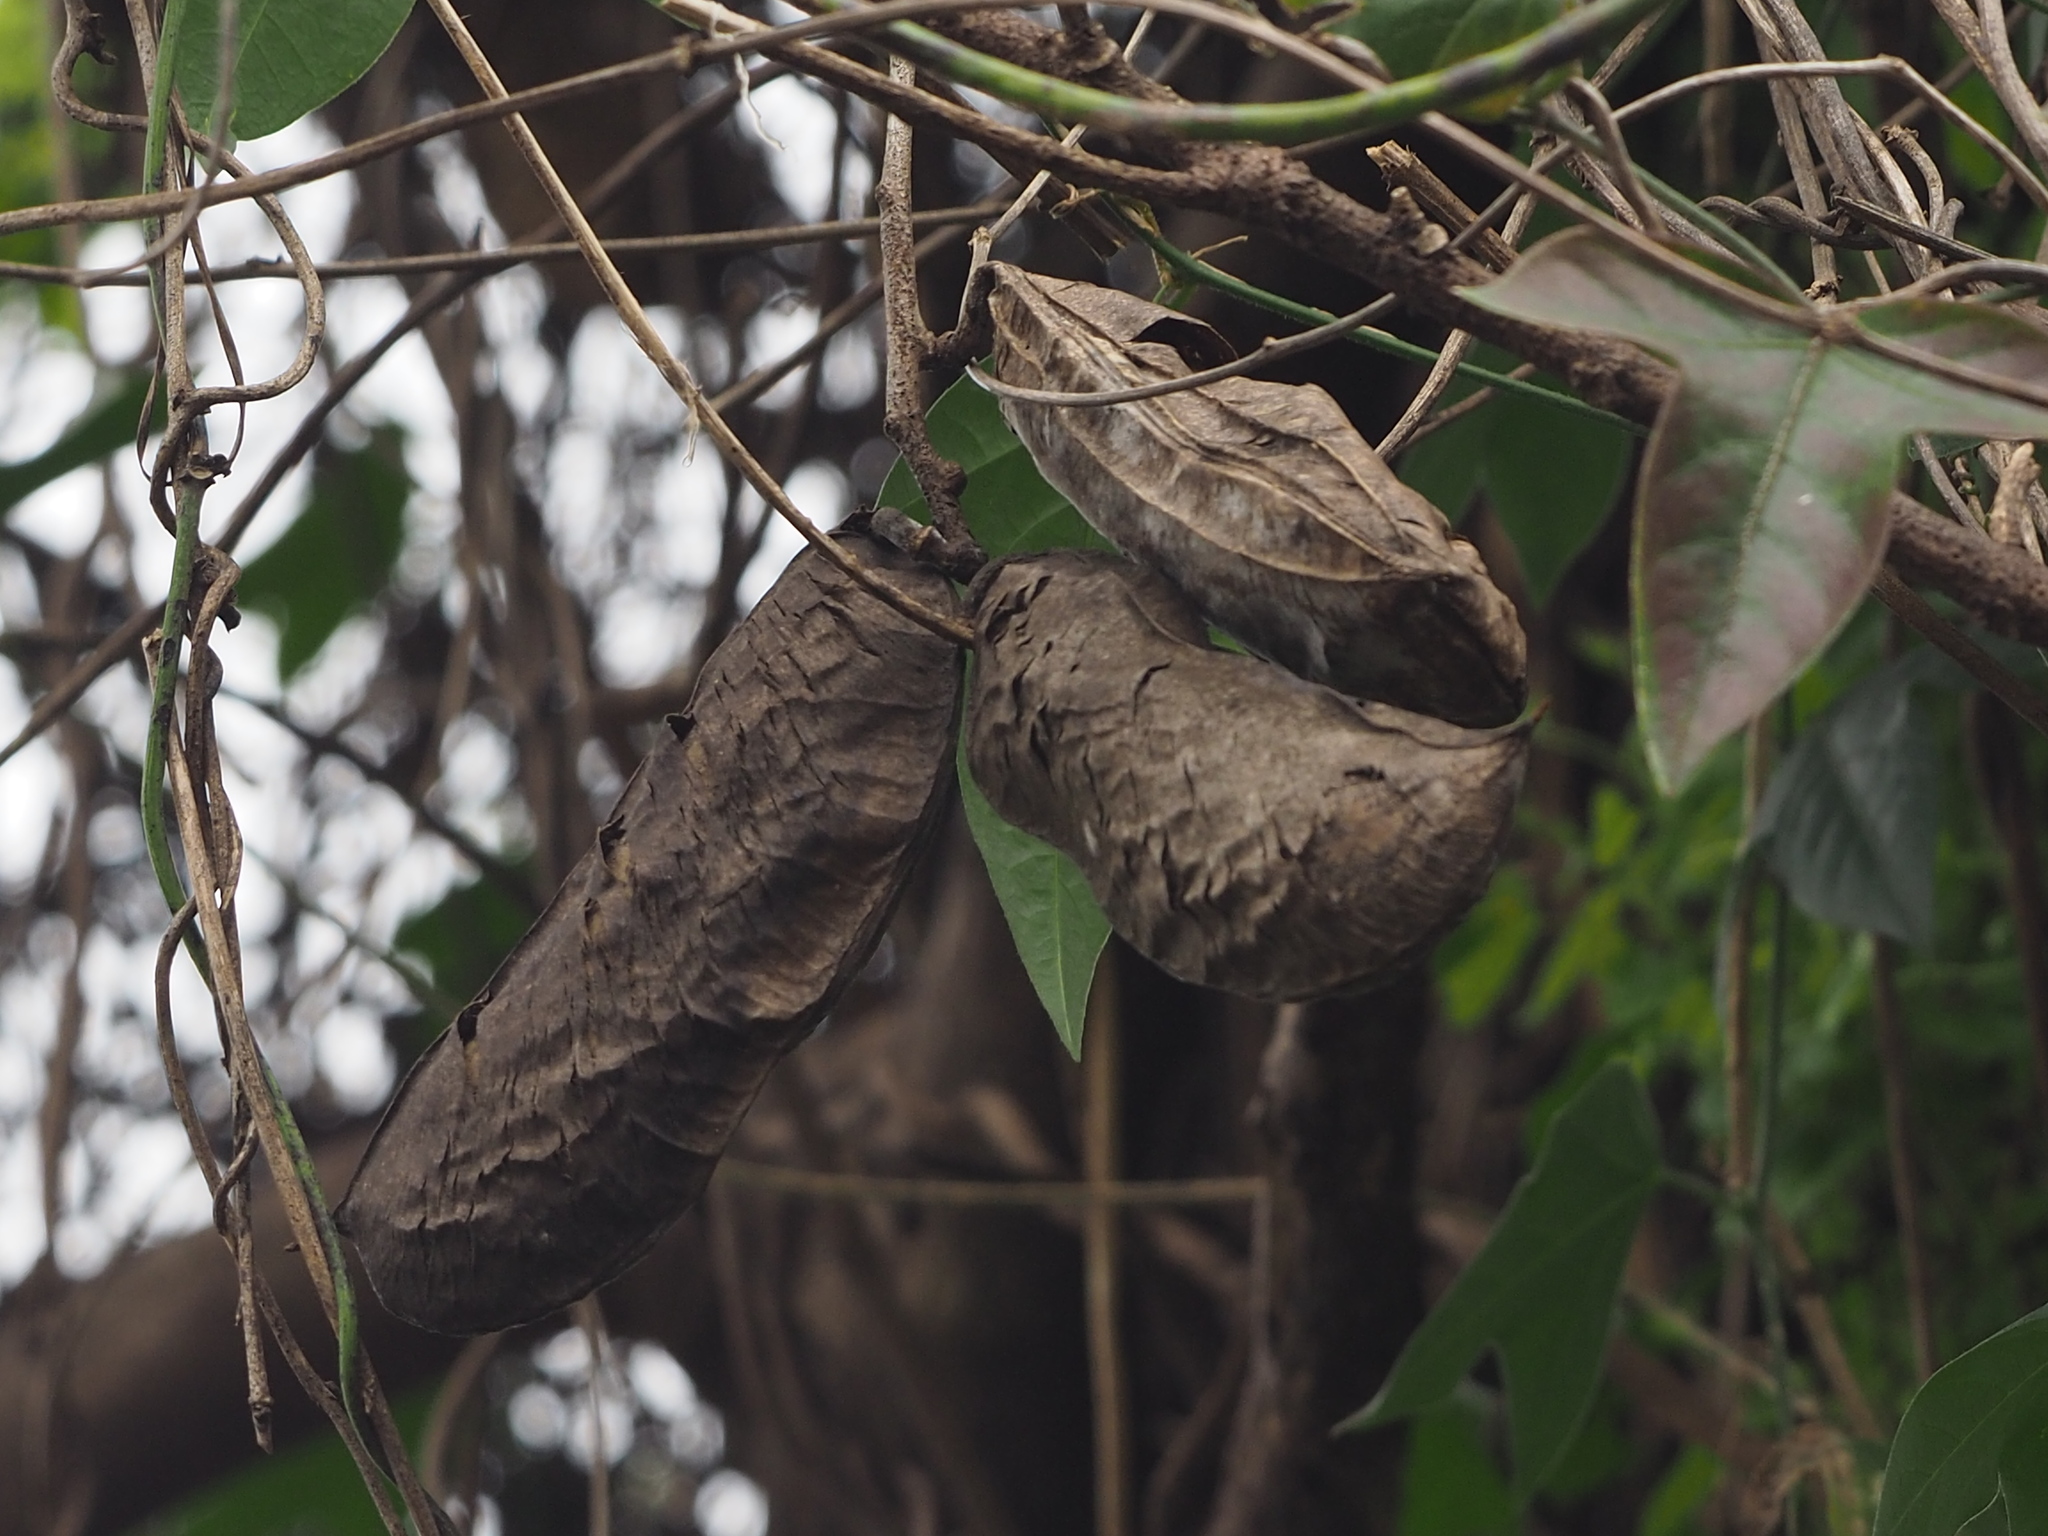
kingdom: Plantae
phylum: Tracheophyta
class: Magnoliopsida
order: Fabales
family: Fabaceae
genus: Canavalia
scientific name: Canavalia lineata
